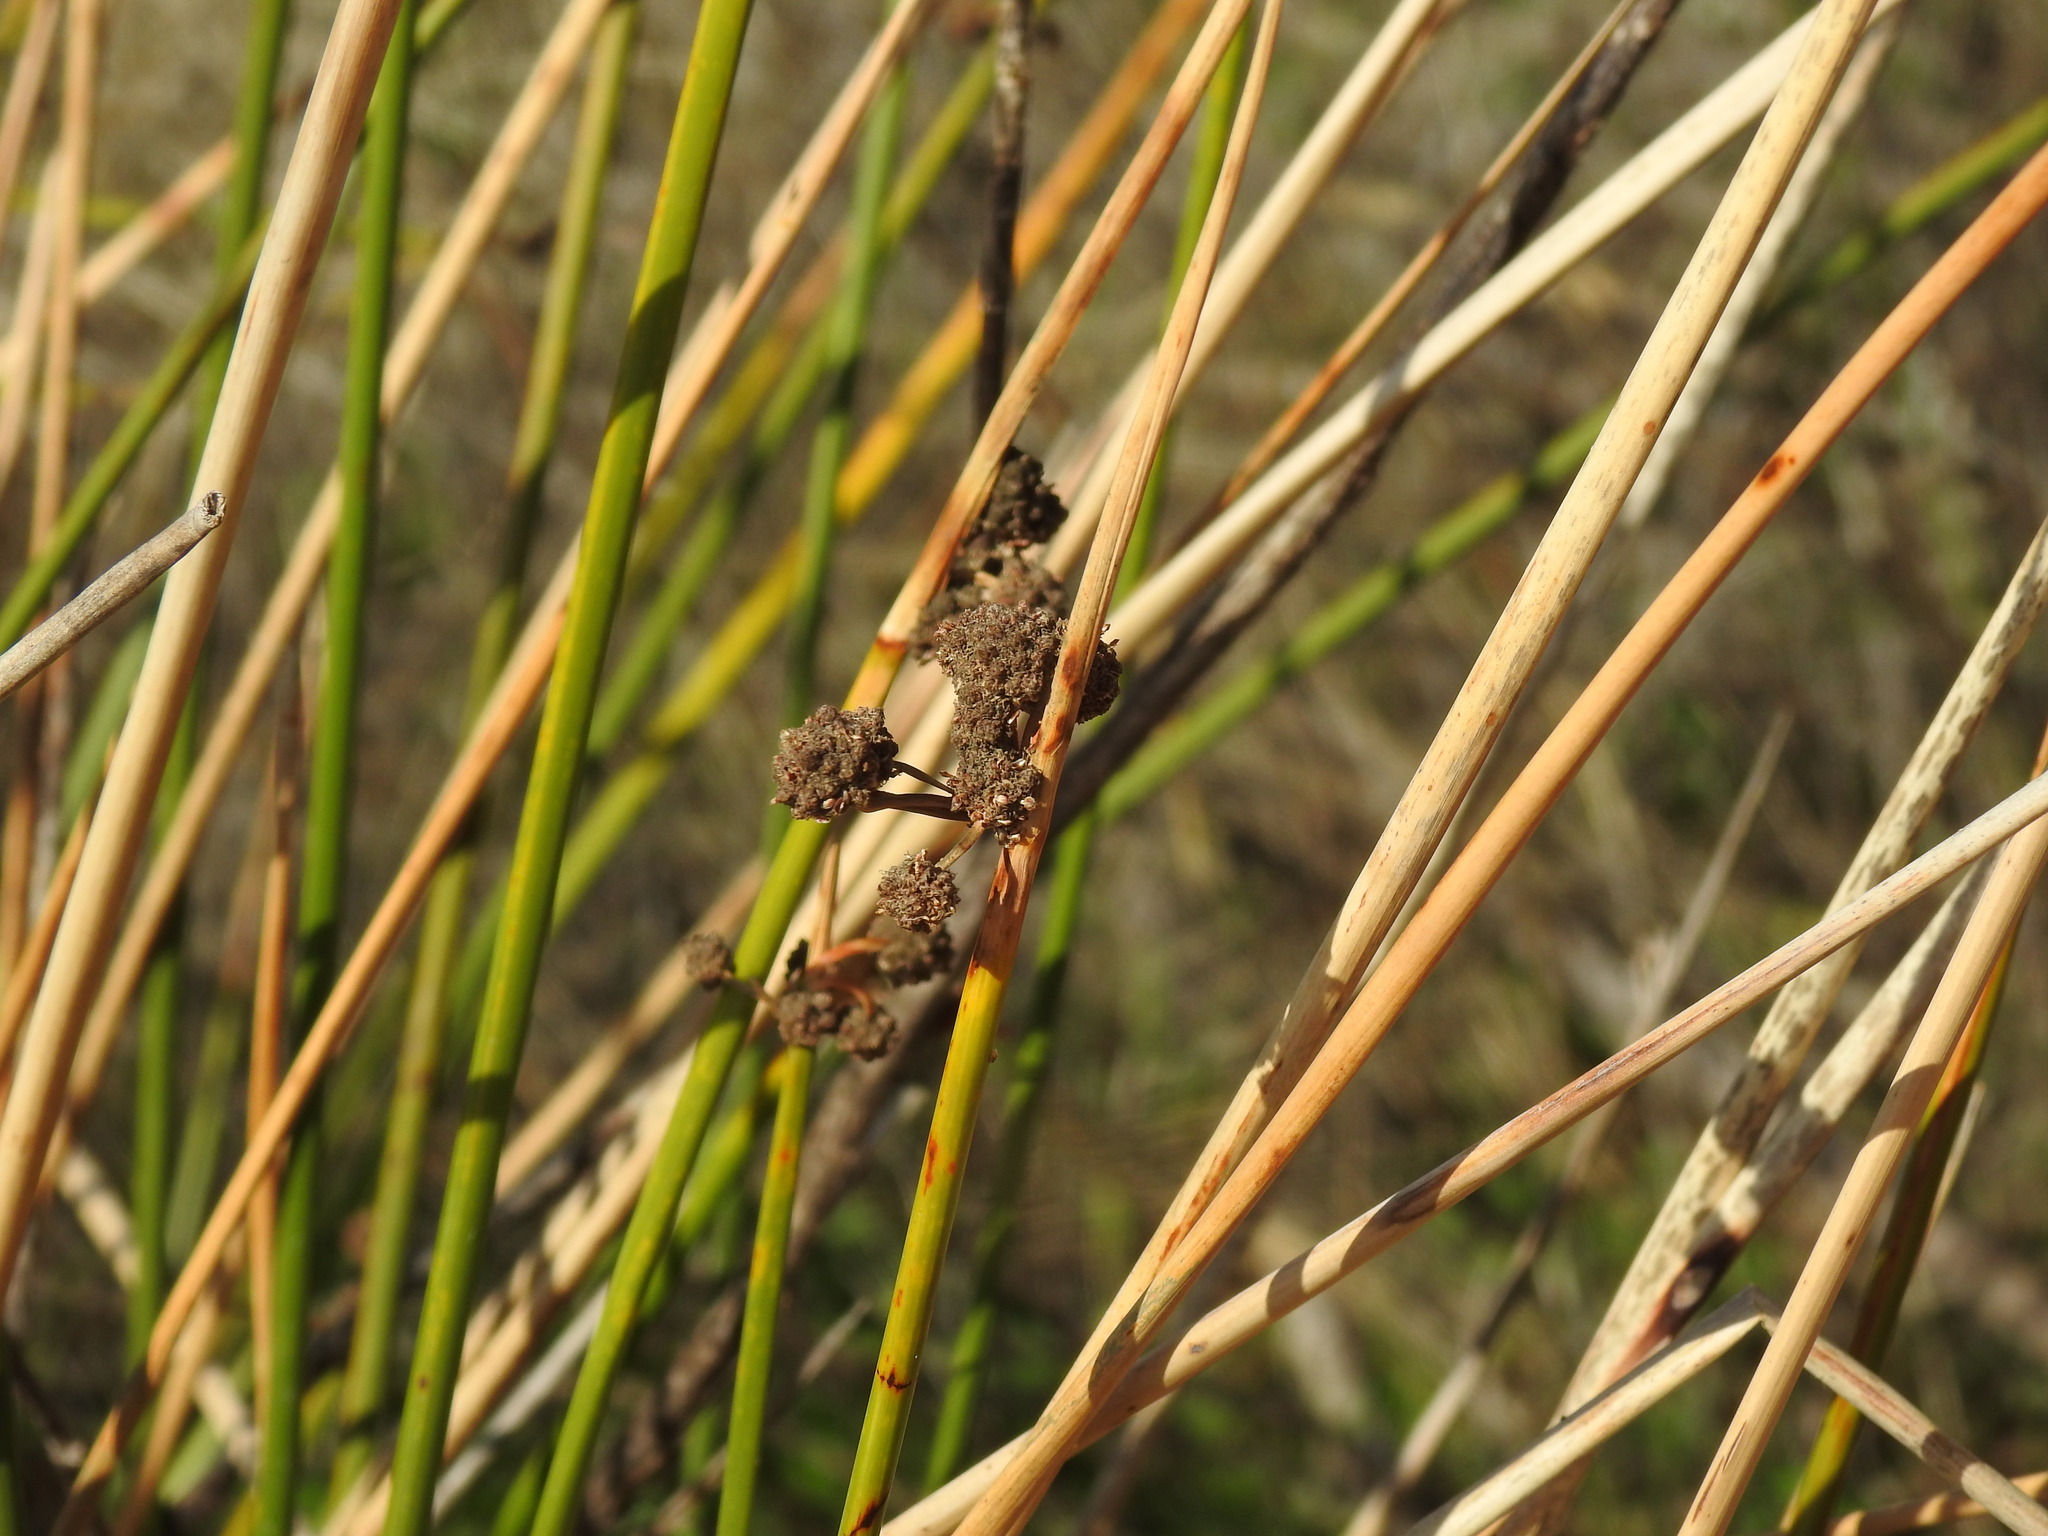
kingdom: Plantae
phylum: Tracheophyta
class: Liliopsida
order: Poales
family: Cyperaceae
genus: Scirpoides
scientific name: Scirpoides holoschoenus
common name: Round-headed club-rush
